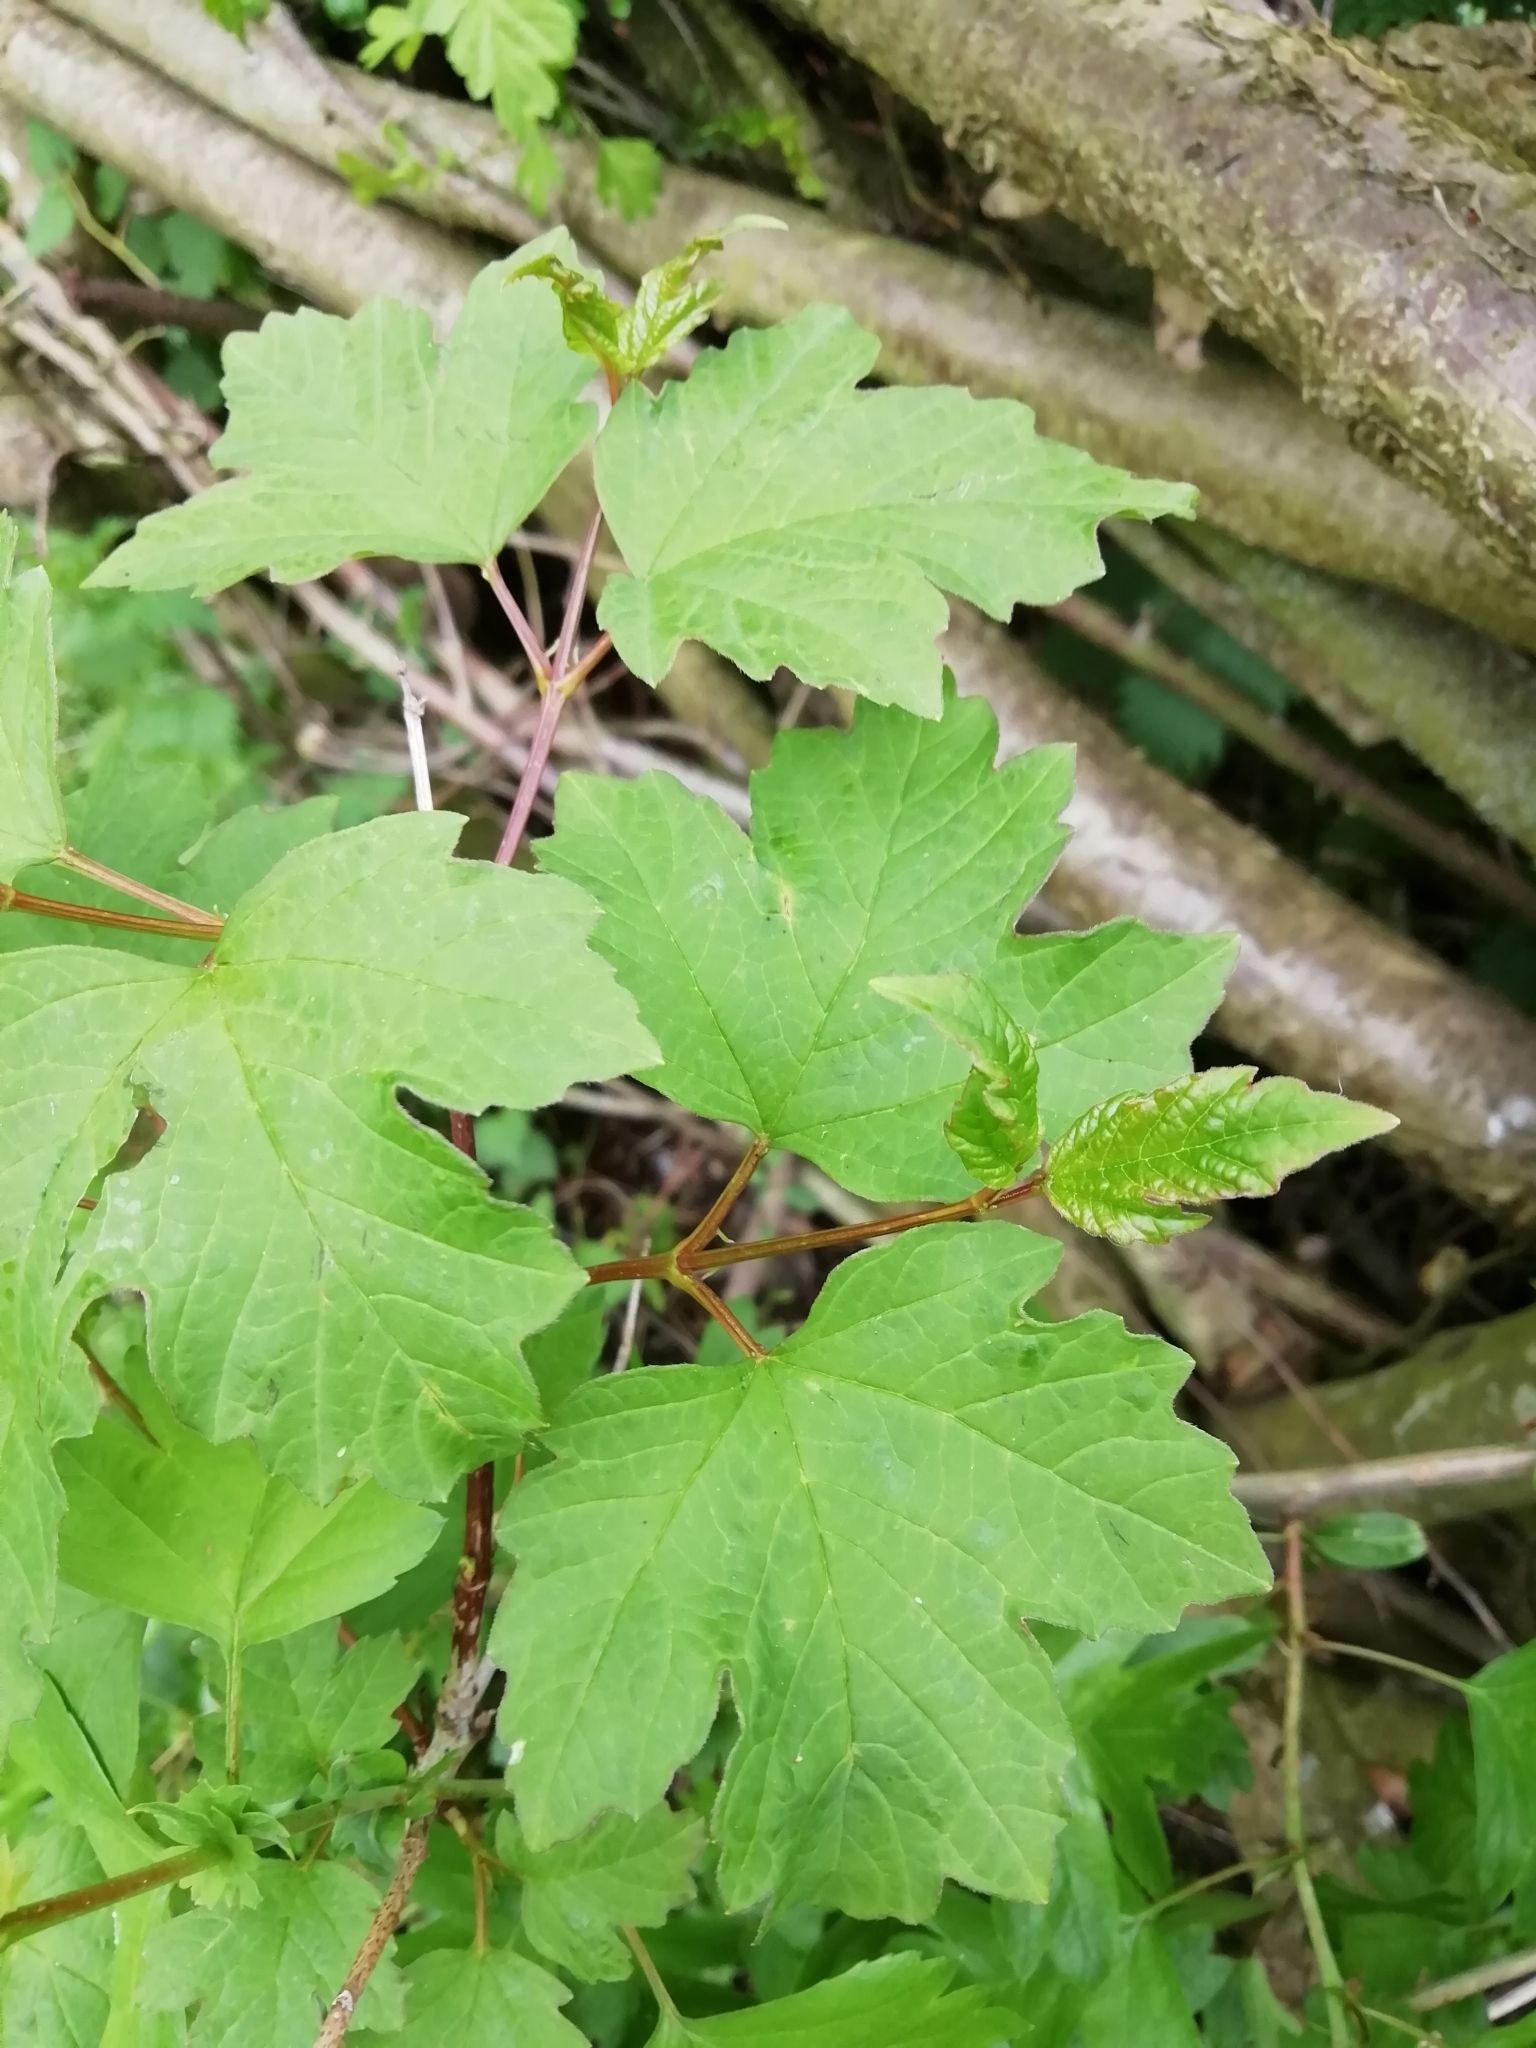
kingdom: Plantae
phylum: Tracheophyta
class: Magnoliopsida
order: Sapindales
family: Sapindaceae
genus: Acer
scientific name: Acer pseudoplatanus
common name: Sycamore
